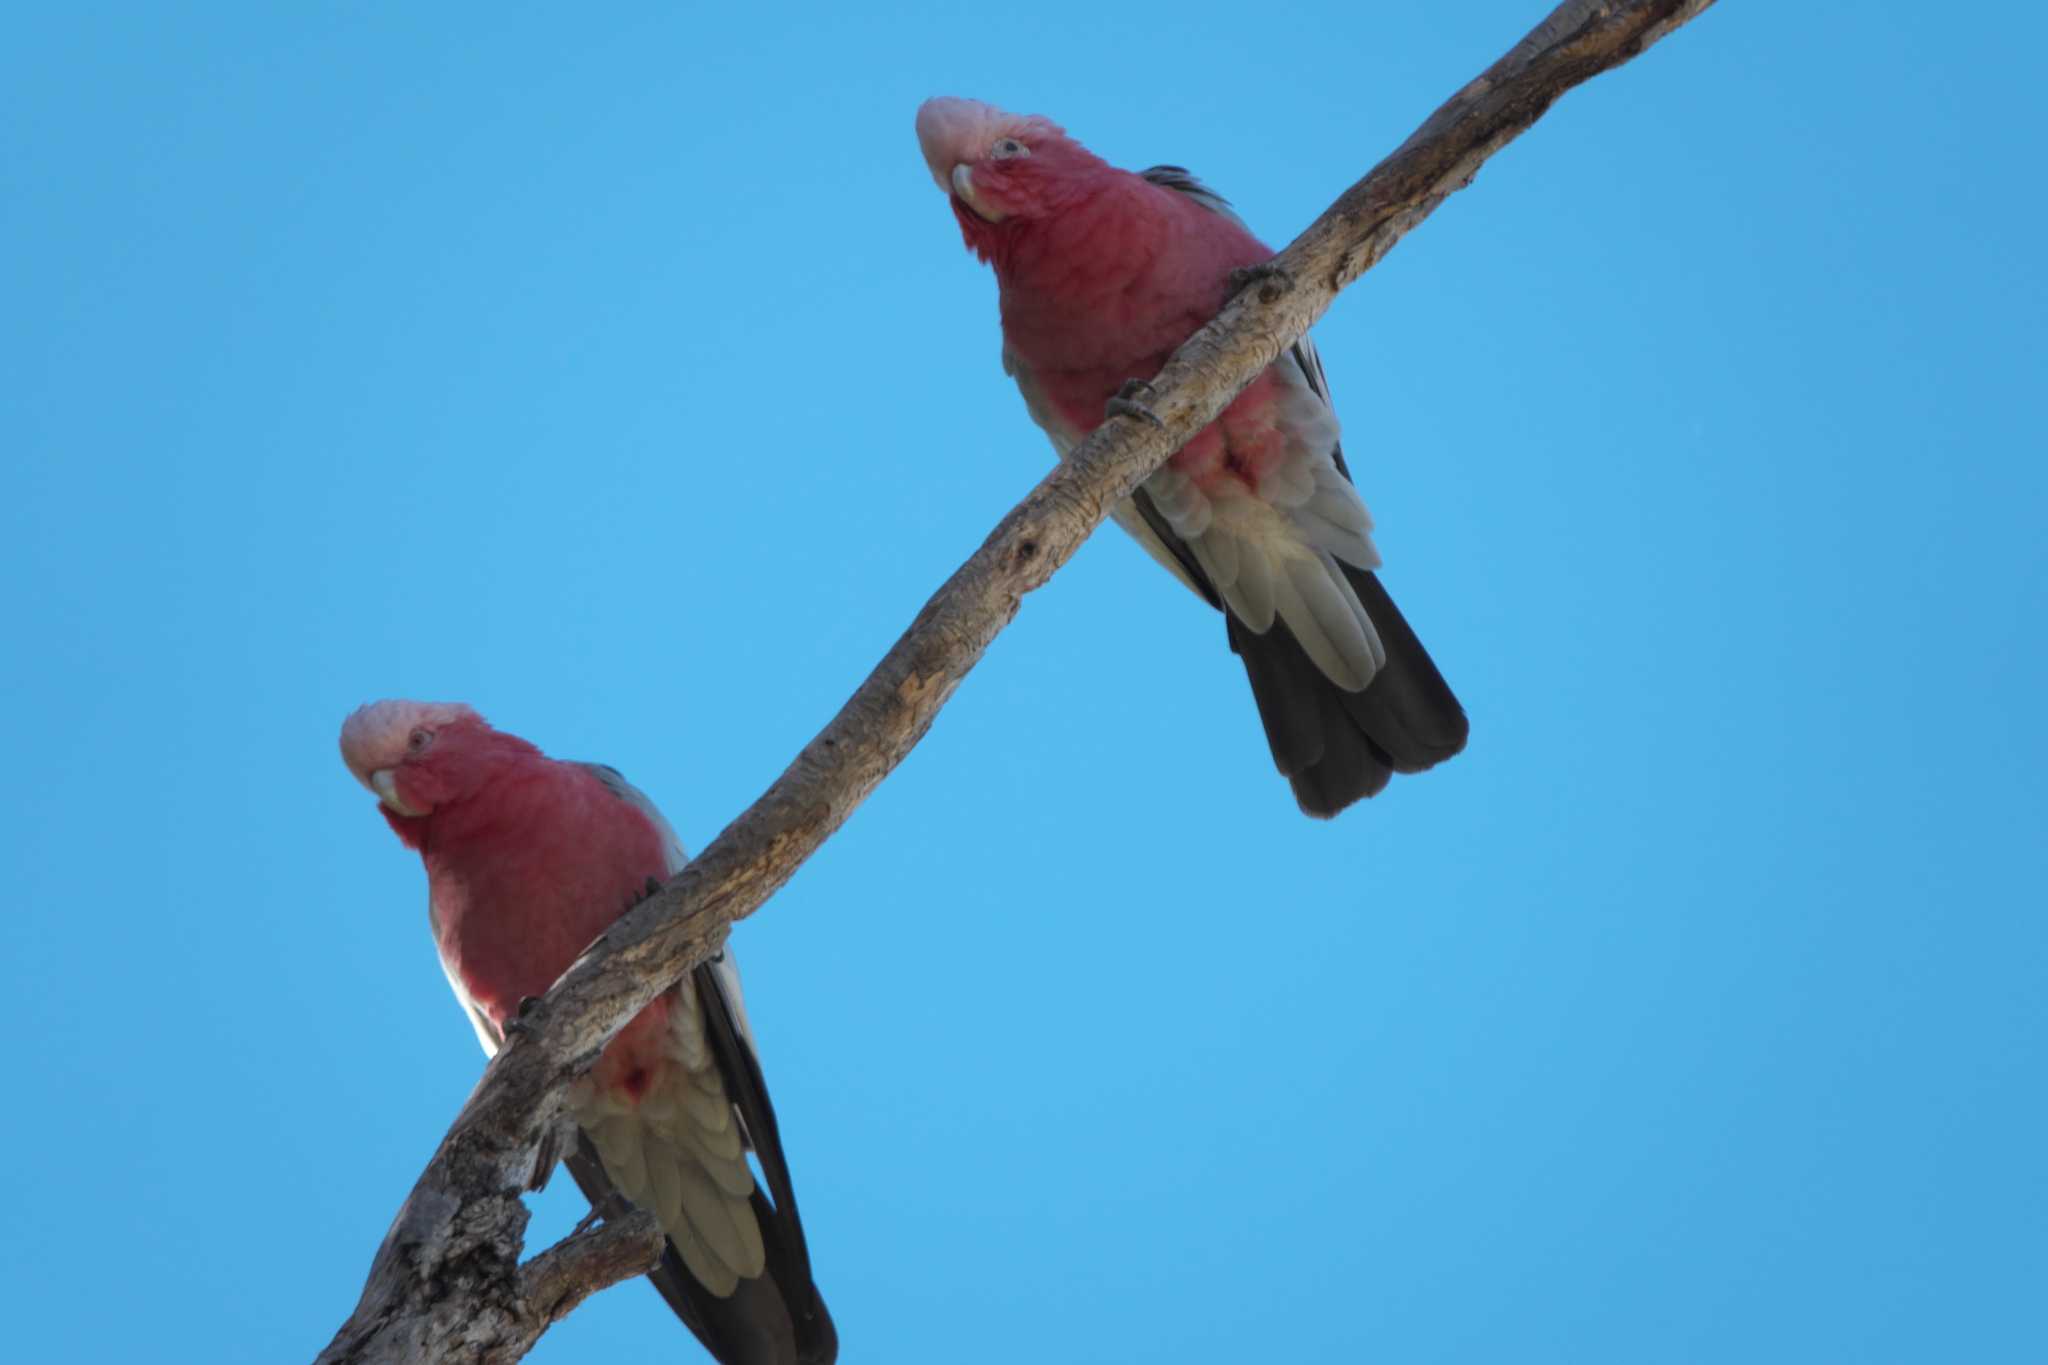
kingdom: Animalia
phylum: Chordata
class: Aves
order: Psittaciformes
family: Psittacidae
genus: Eolophus
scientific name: Eolophus roseicapilla
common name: Galah
